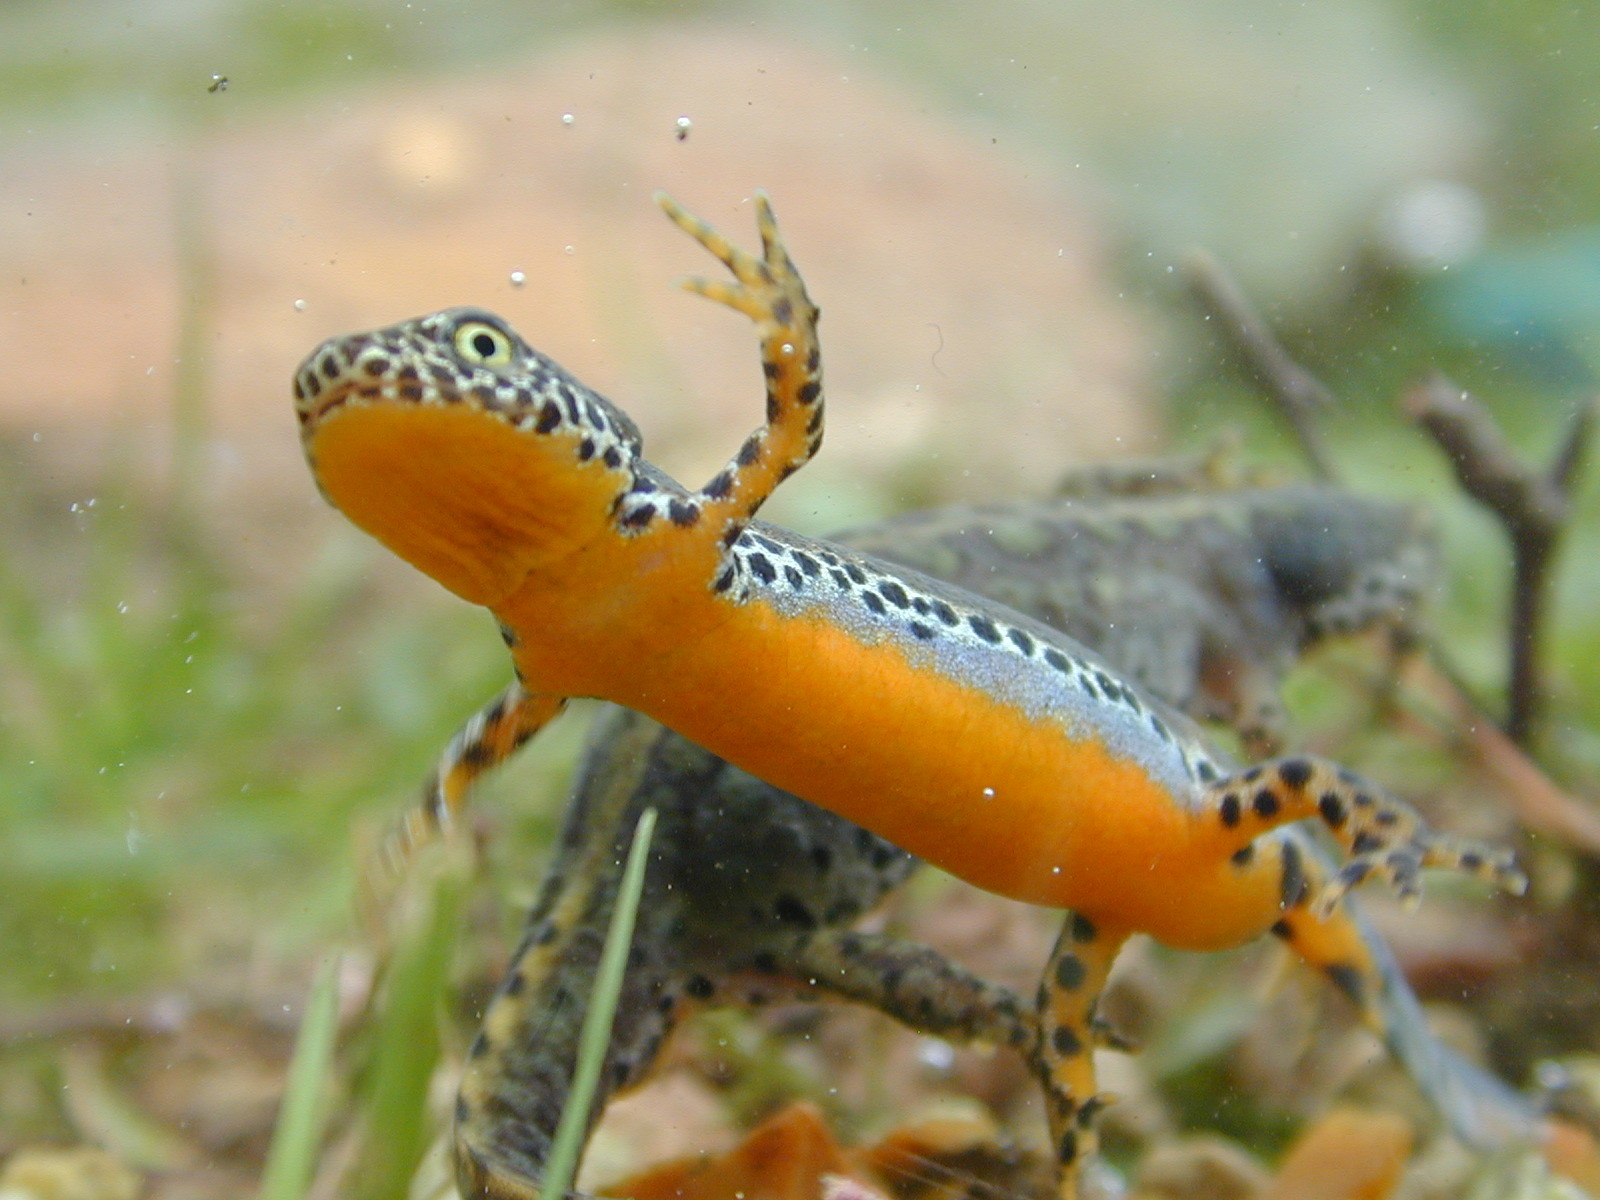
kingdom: Animalia
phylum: Chordata
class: Amphibia
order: Caudata
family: Salamandridae
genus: Ichthyosaura
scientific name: Ichthyosaura alpestris
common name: Alpine newt
